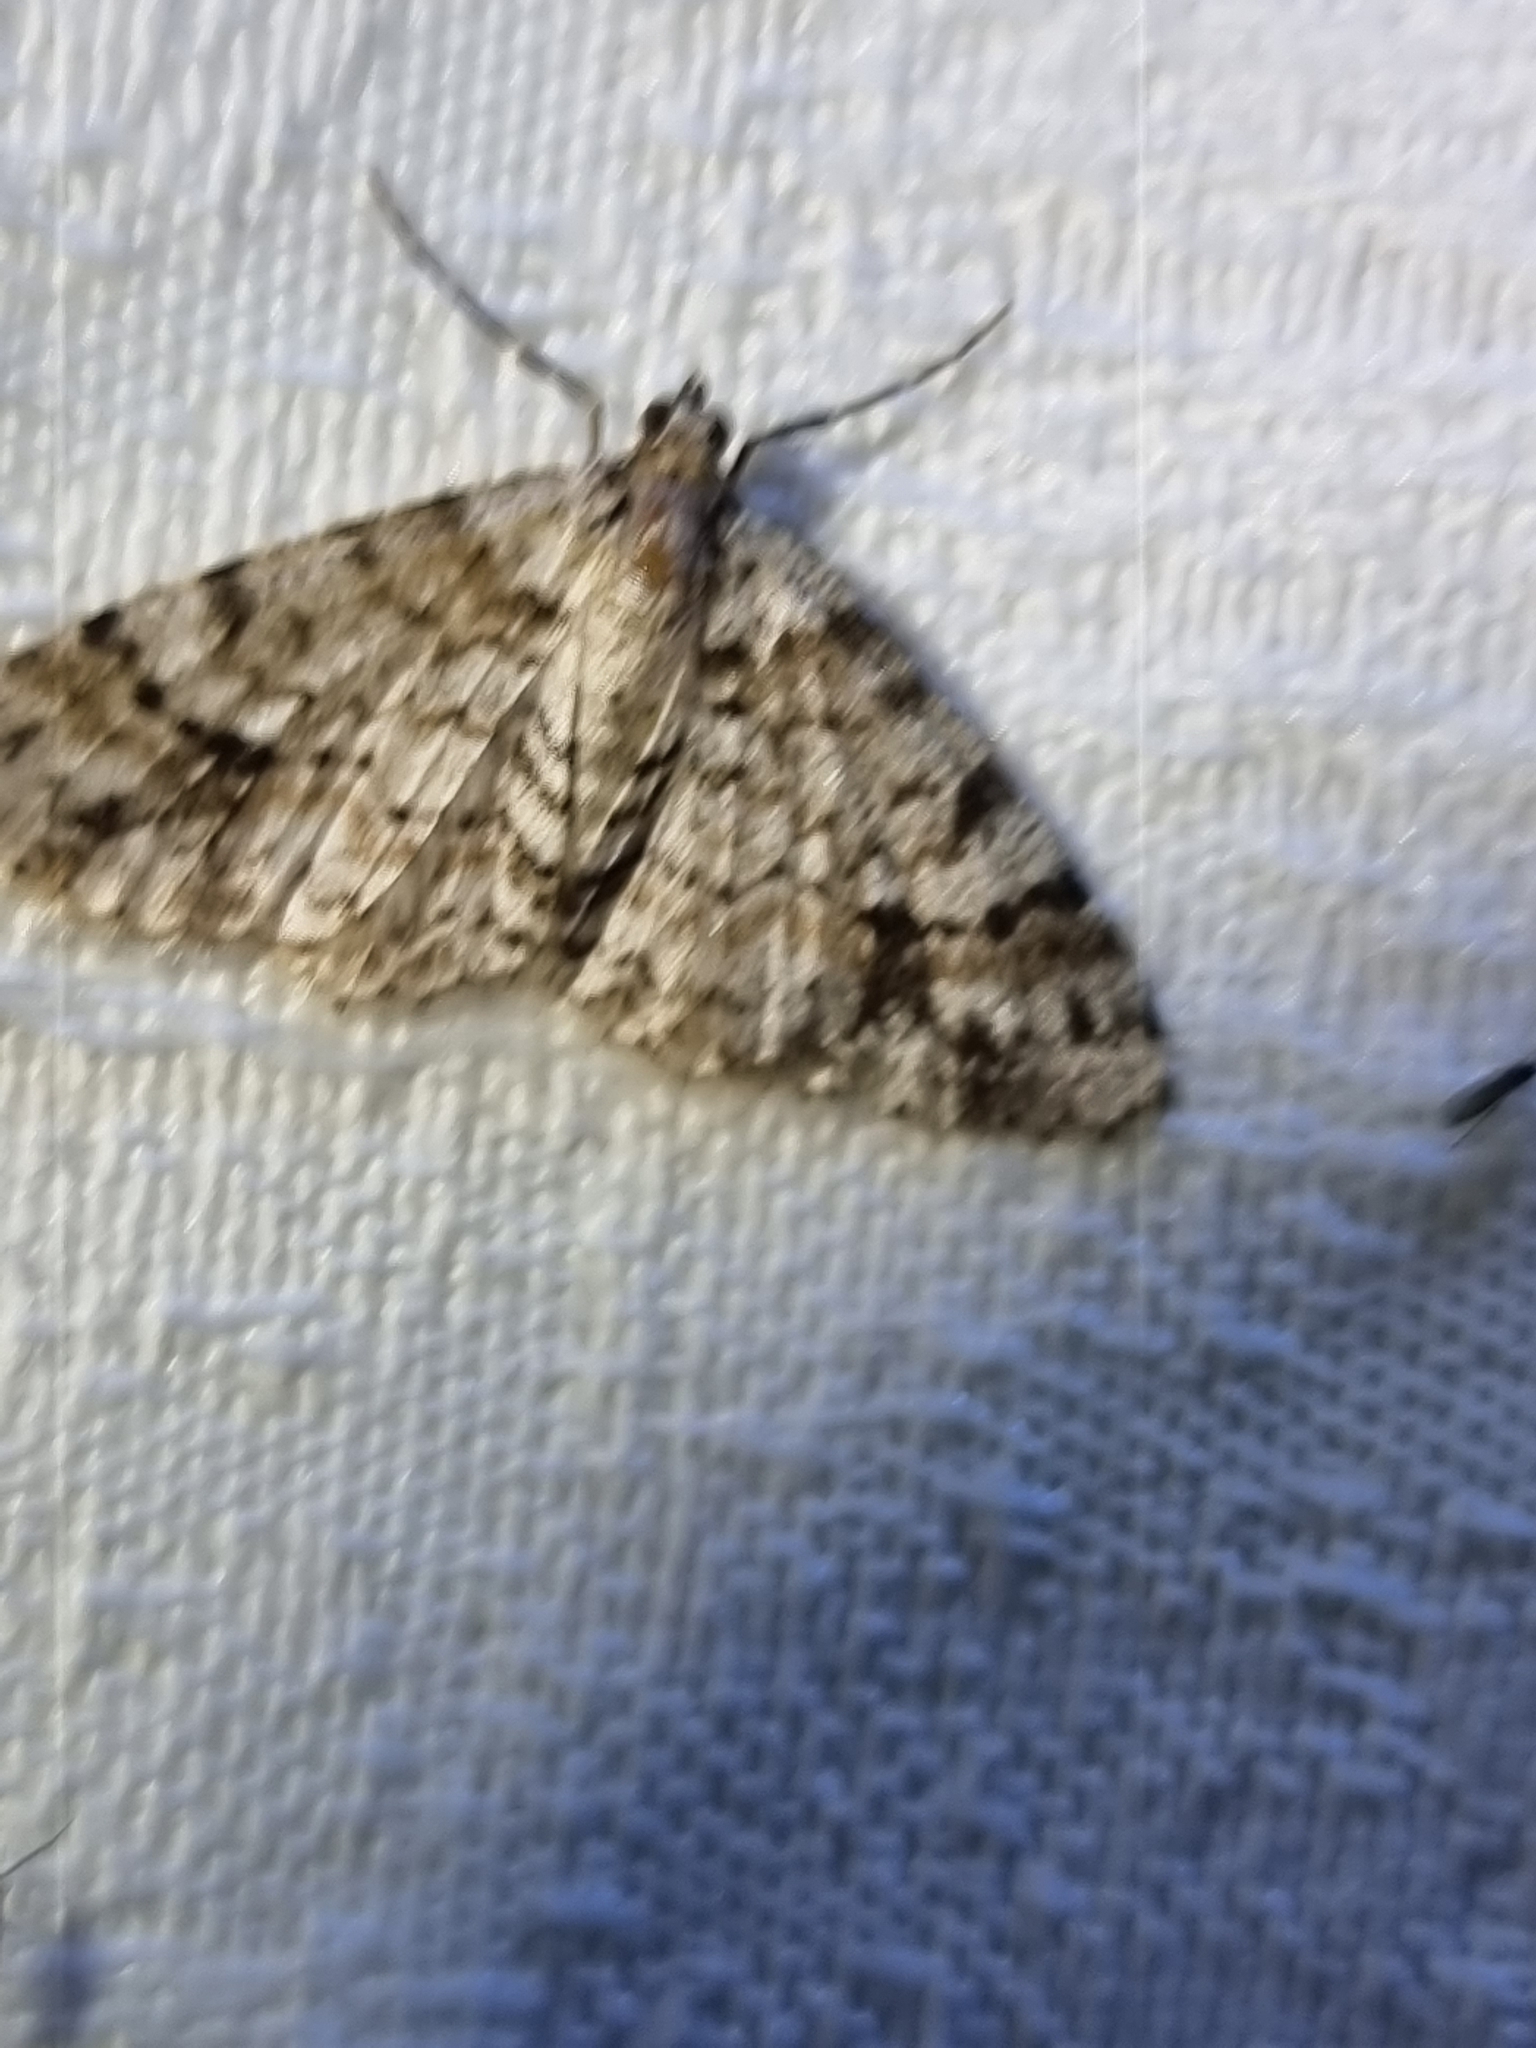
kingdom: Animalia
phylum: Arthropoda
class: Insecta
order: Lepidoptera
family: Geometridae
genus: Myrioblephara
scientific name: Myrioblephara desumpta
